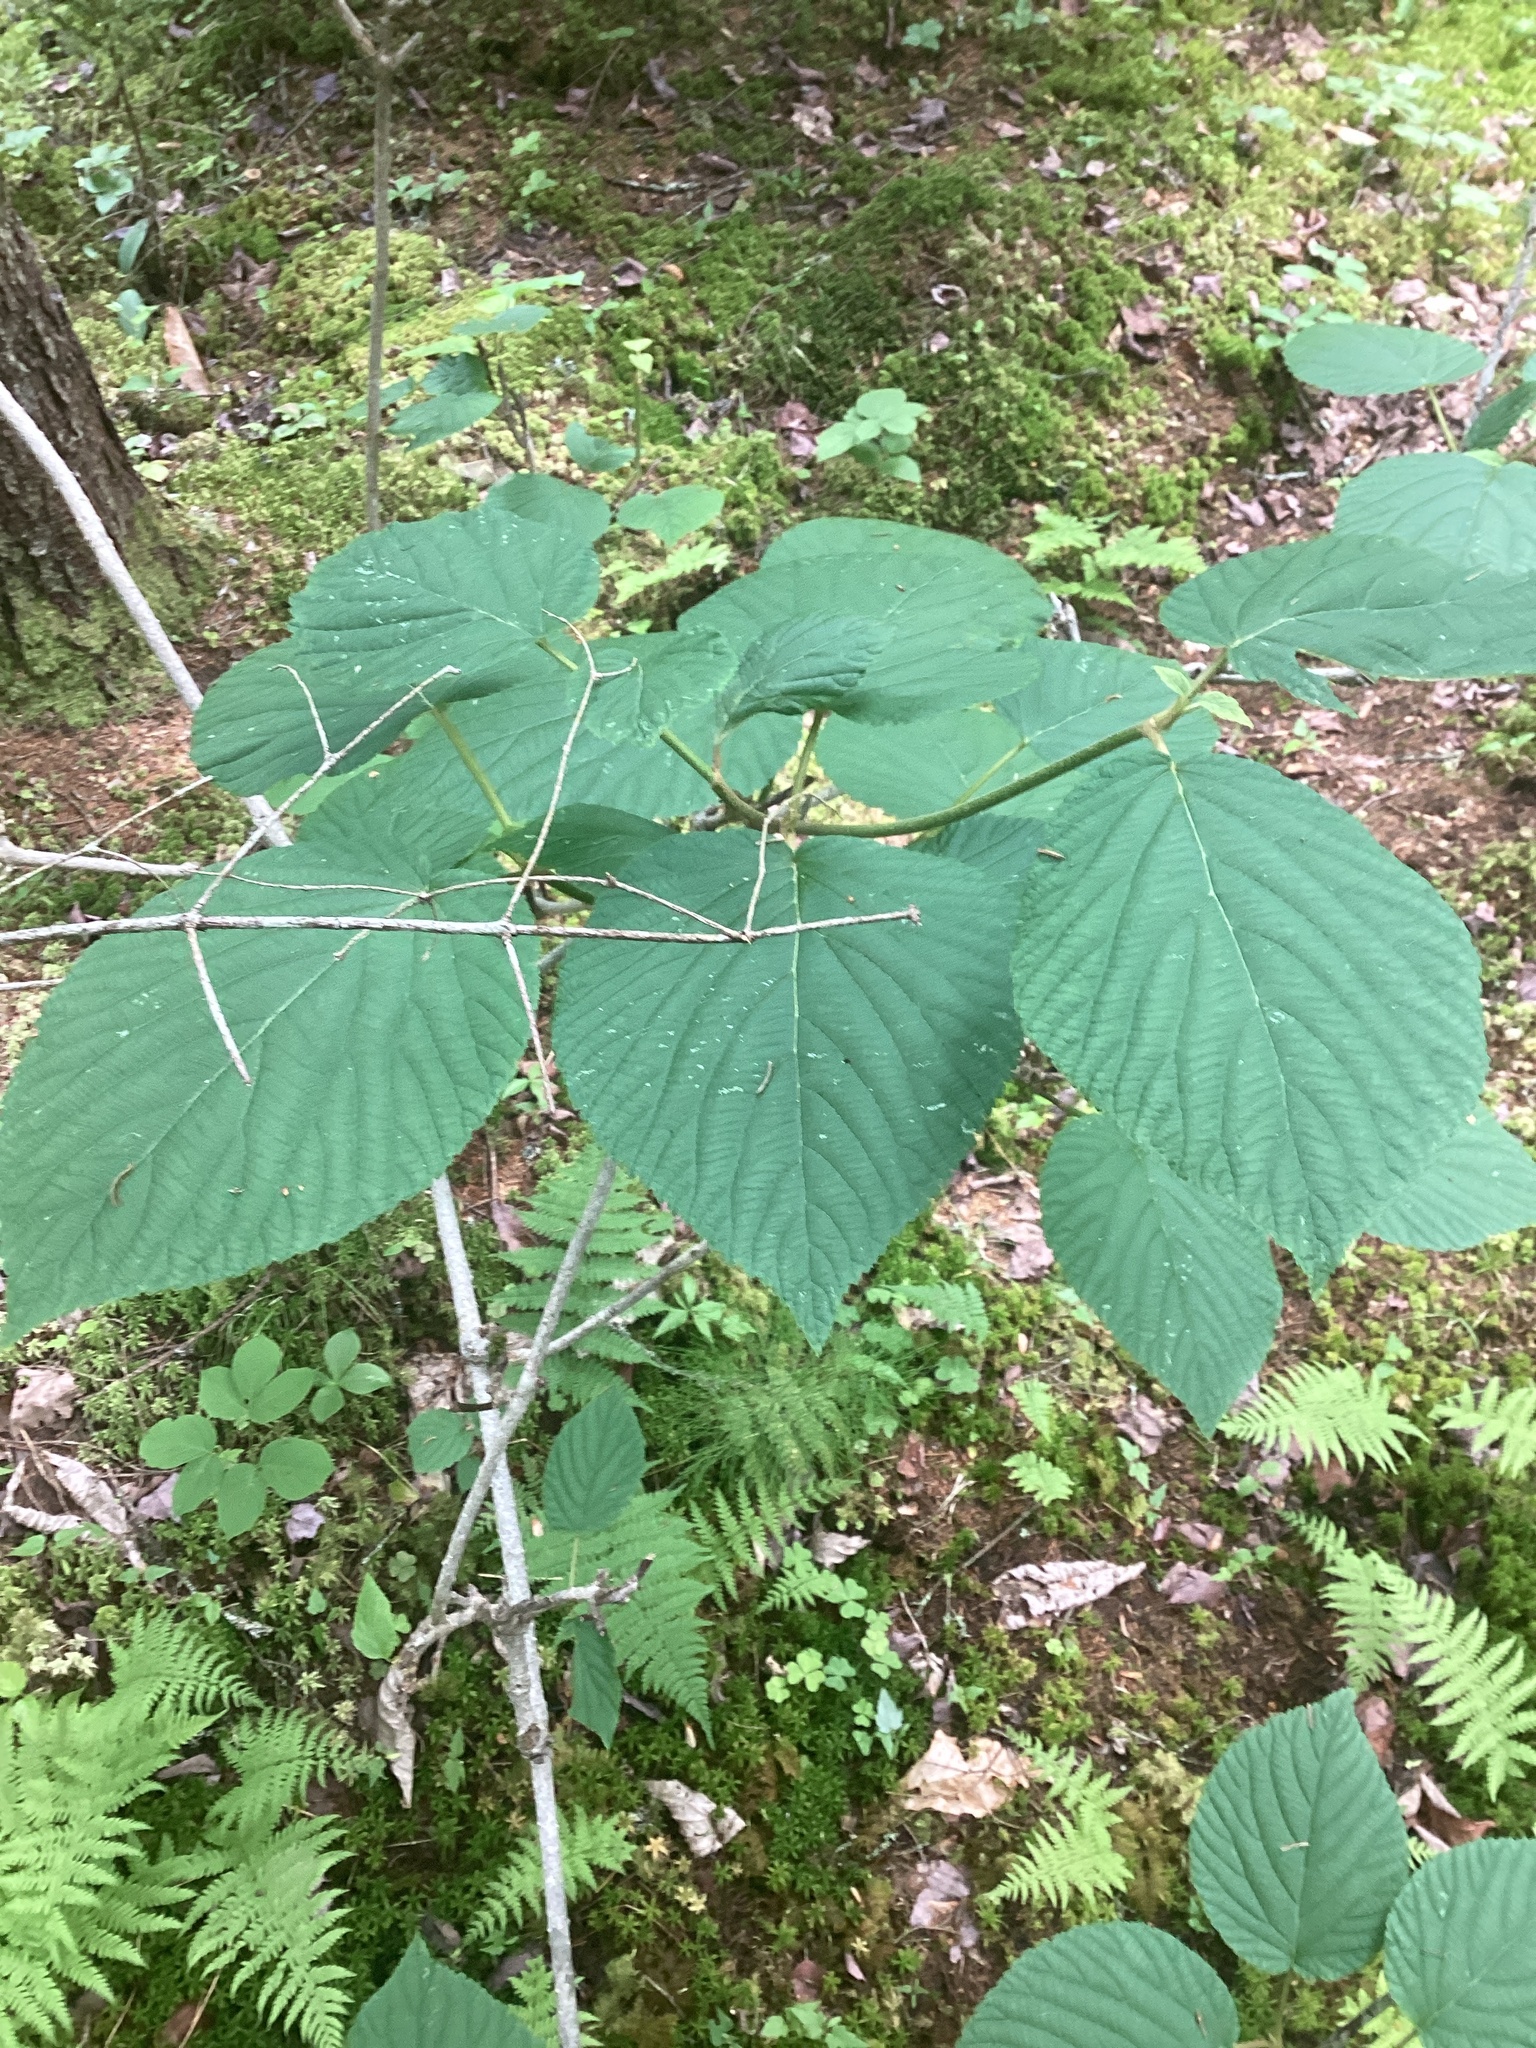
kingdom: Plantae
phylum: Tracheophyta
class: Magnoliopsida
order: Dipsacales
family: Viburnaceae
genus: Viburnum
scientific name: Viburnum lantanoides
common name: Hobblebush
